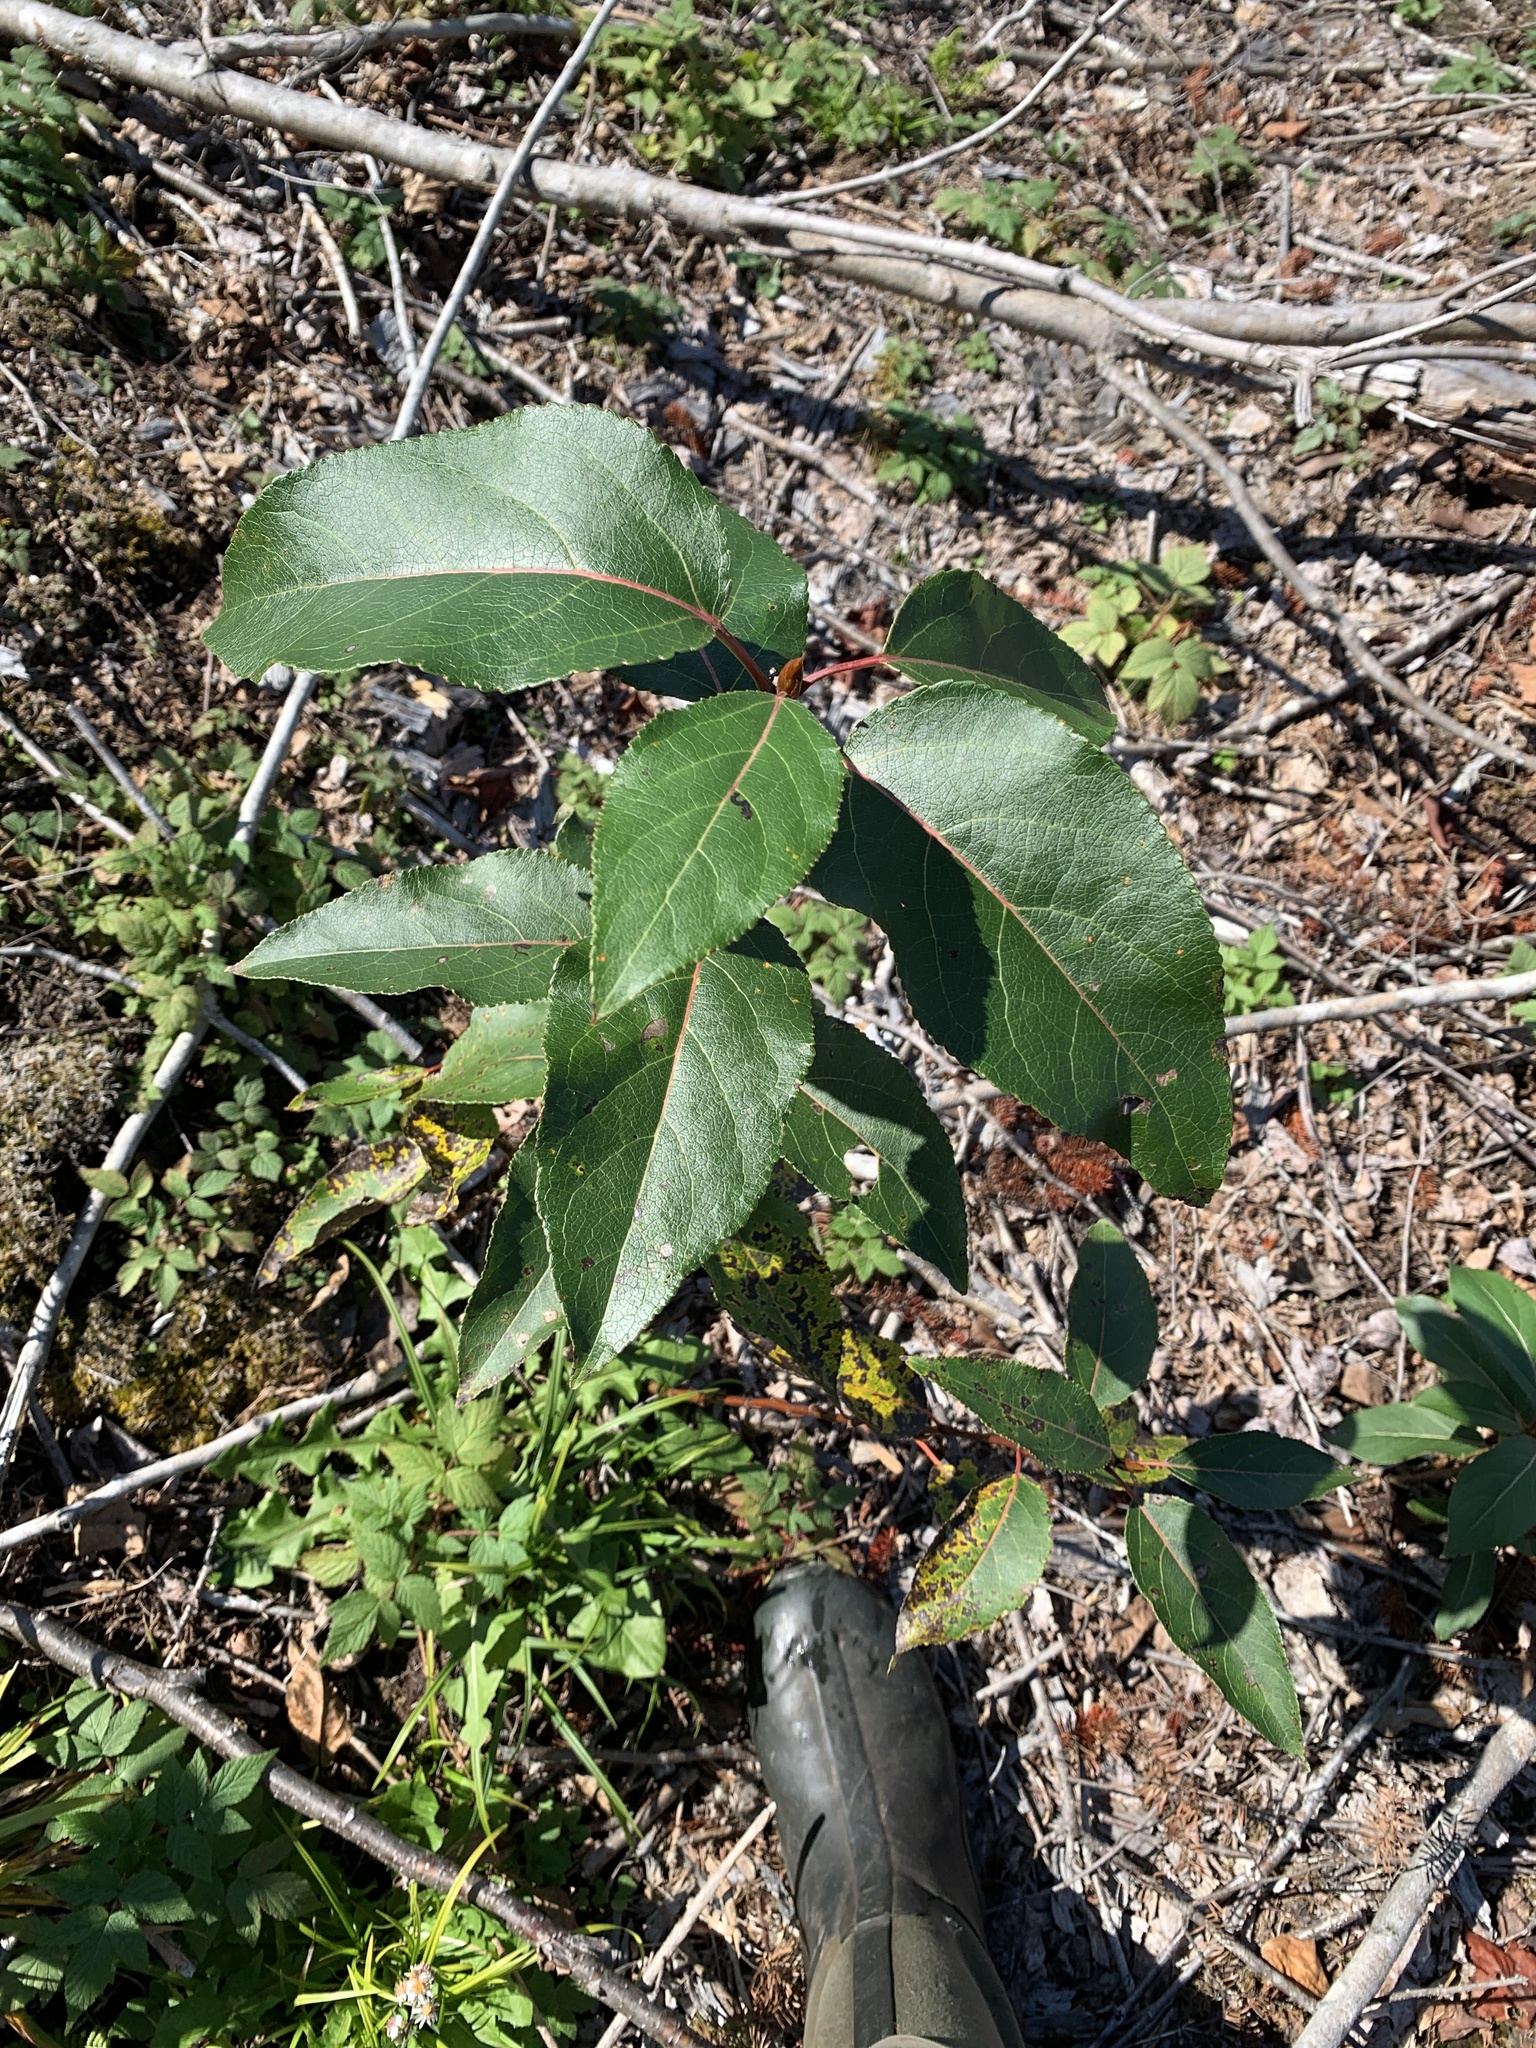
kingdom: Plantae
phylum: Tracheophyta
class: Magnoliopsida
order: Malpighiales
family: Salicaceae
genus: Populus
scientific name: Populus balsamifera
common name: Balsam poplar
